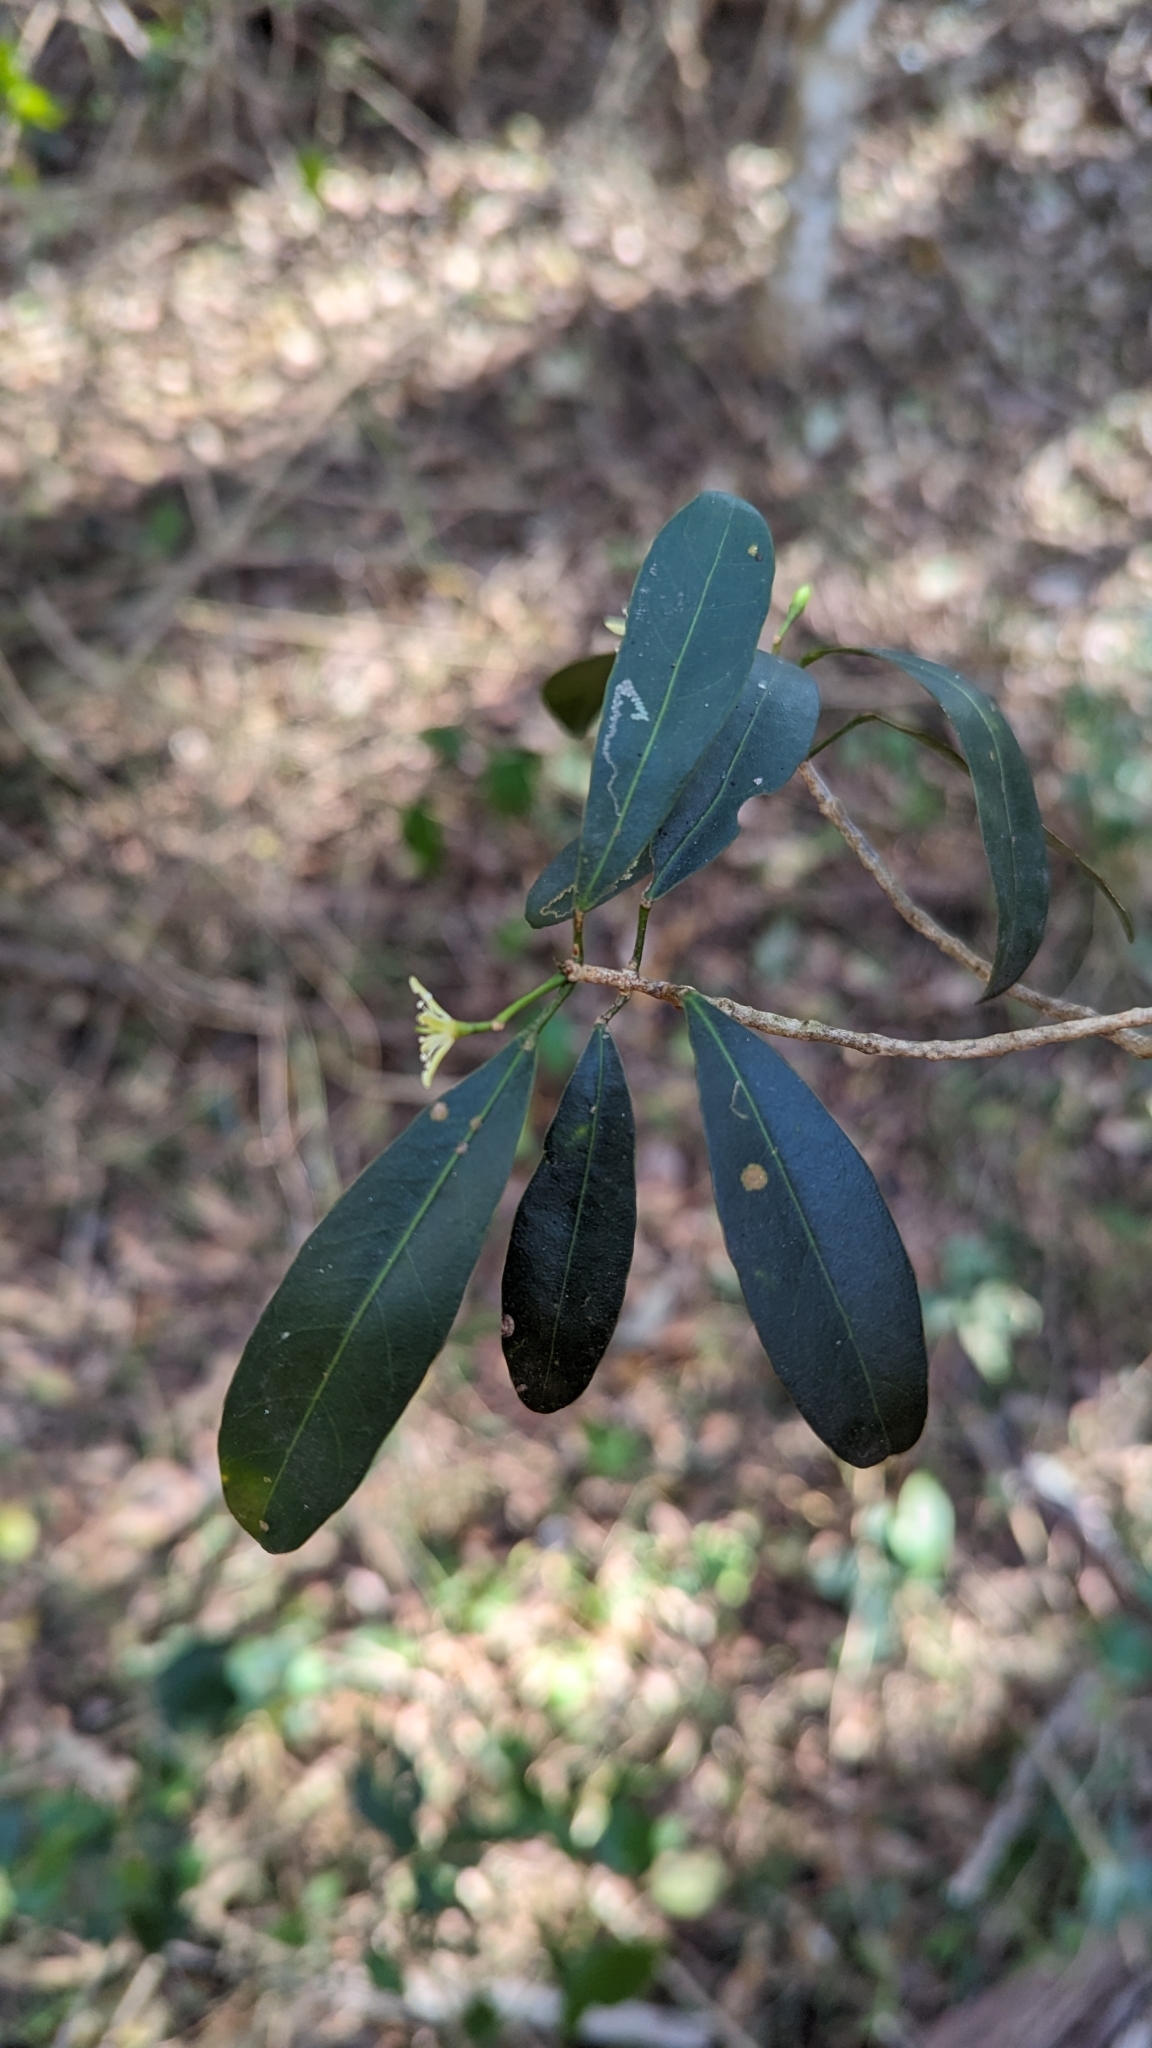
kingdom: Plantae
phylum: Tracheophyta
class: Magnoliopsida
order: Sapindales
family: Rutaceae
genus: Acronychia
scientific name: Acronychia laevis
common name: Hard aspen
